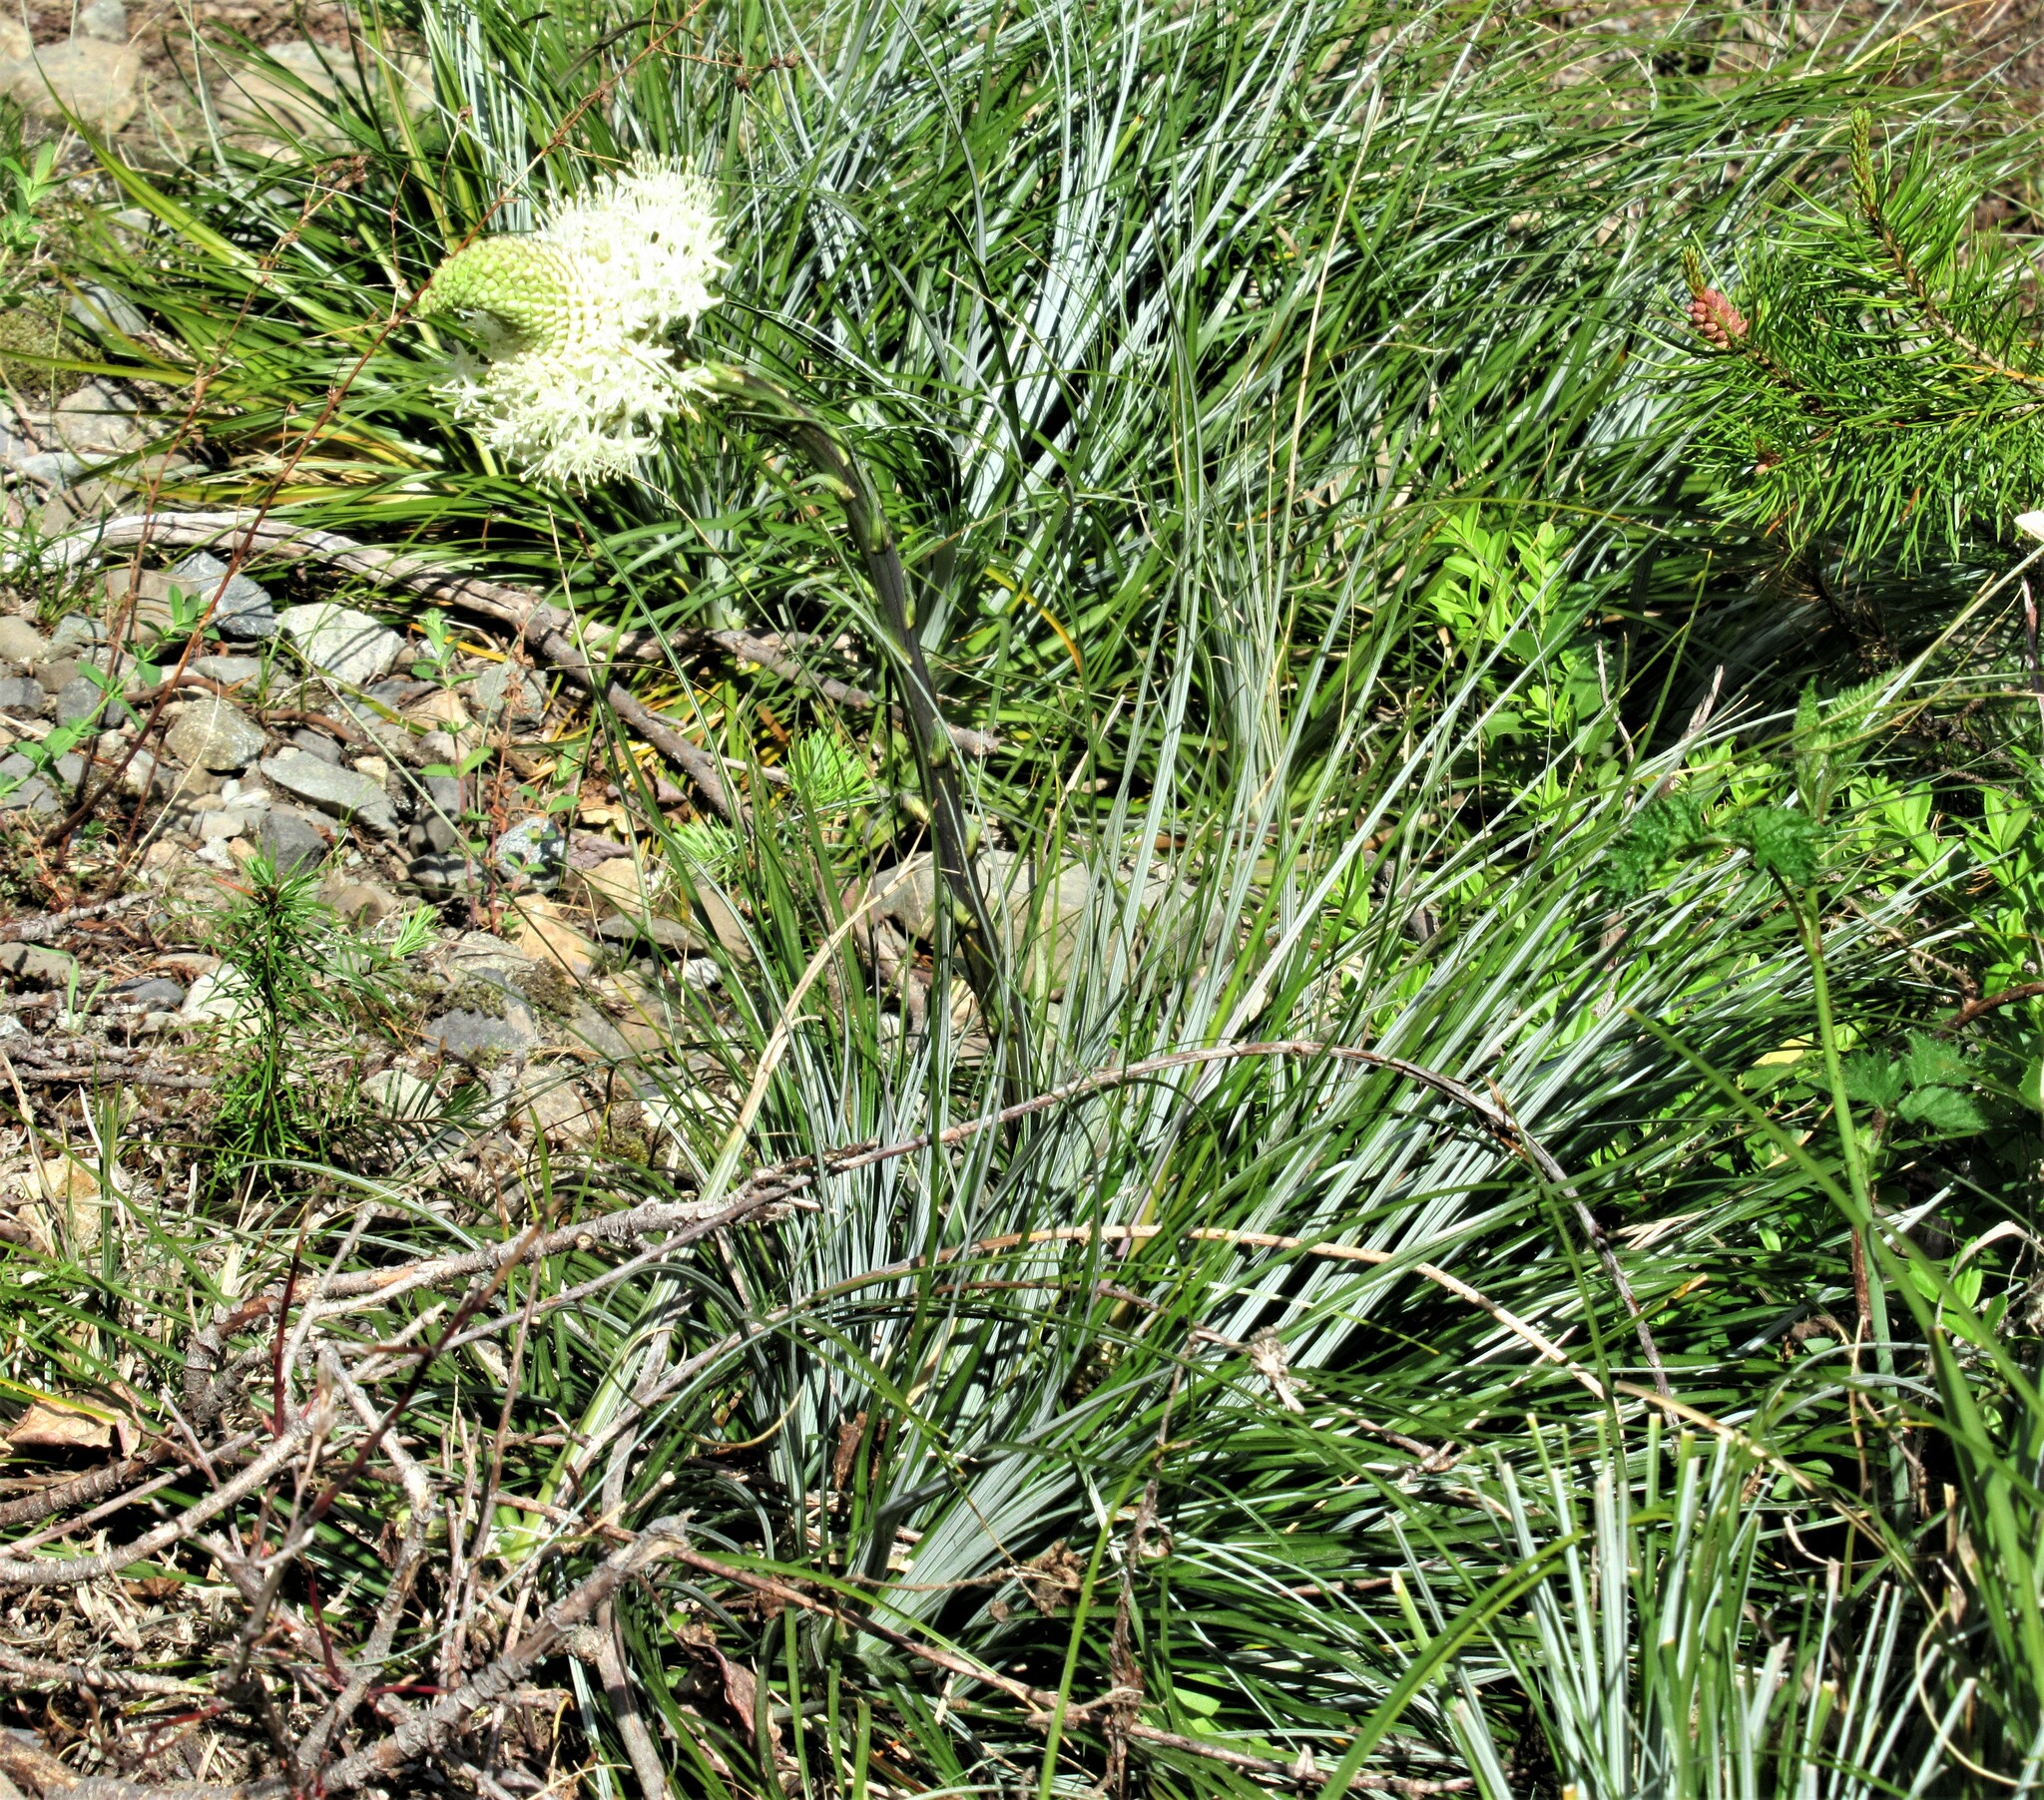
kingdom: Plantae
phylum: Tracheophyta
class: Liliopsida
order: Liliales
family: Melanthiaceae
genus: Xerophyllum
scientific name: Xerophyllum tenax
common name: Bear-grass
